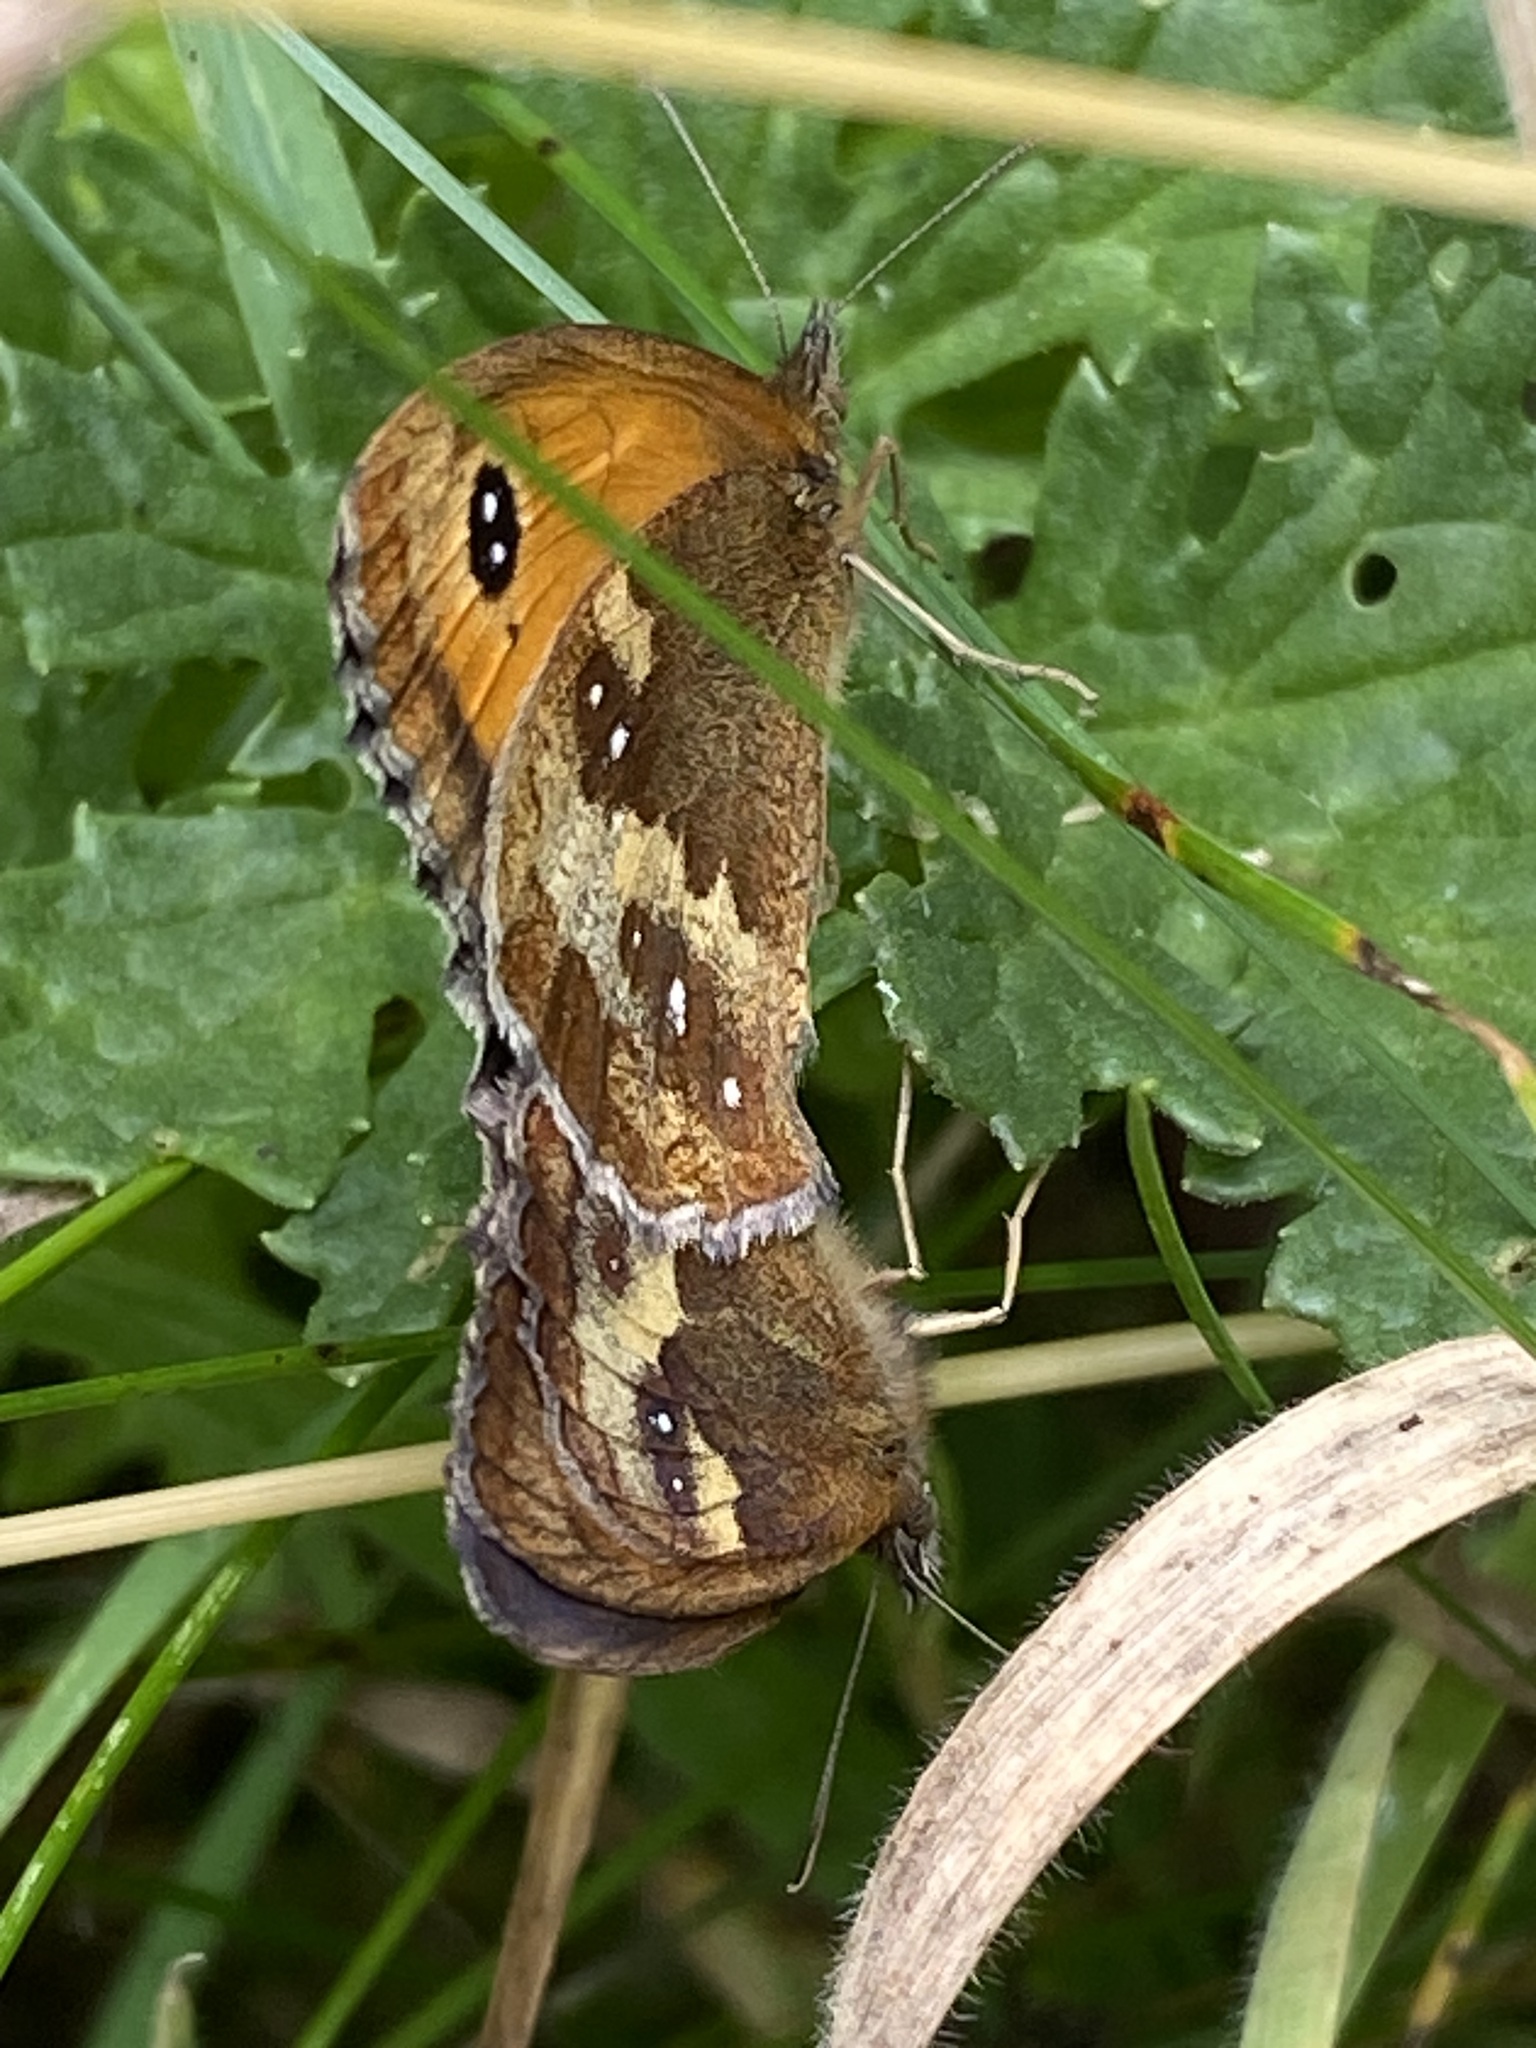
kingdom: Animalia
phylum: Arthropoda
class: Insecta
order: Lepidoptera
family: Nymphalidae
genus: Pyronia
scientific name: Pyronia tithonus
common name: Gatekeeper
